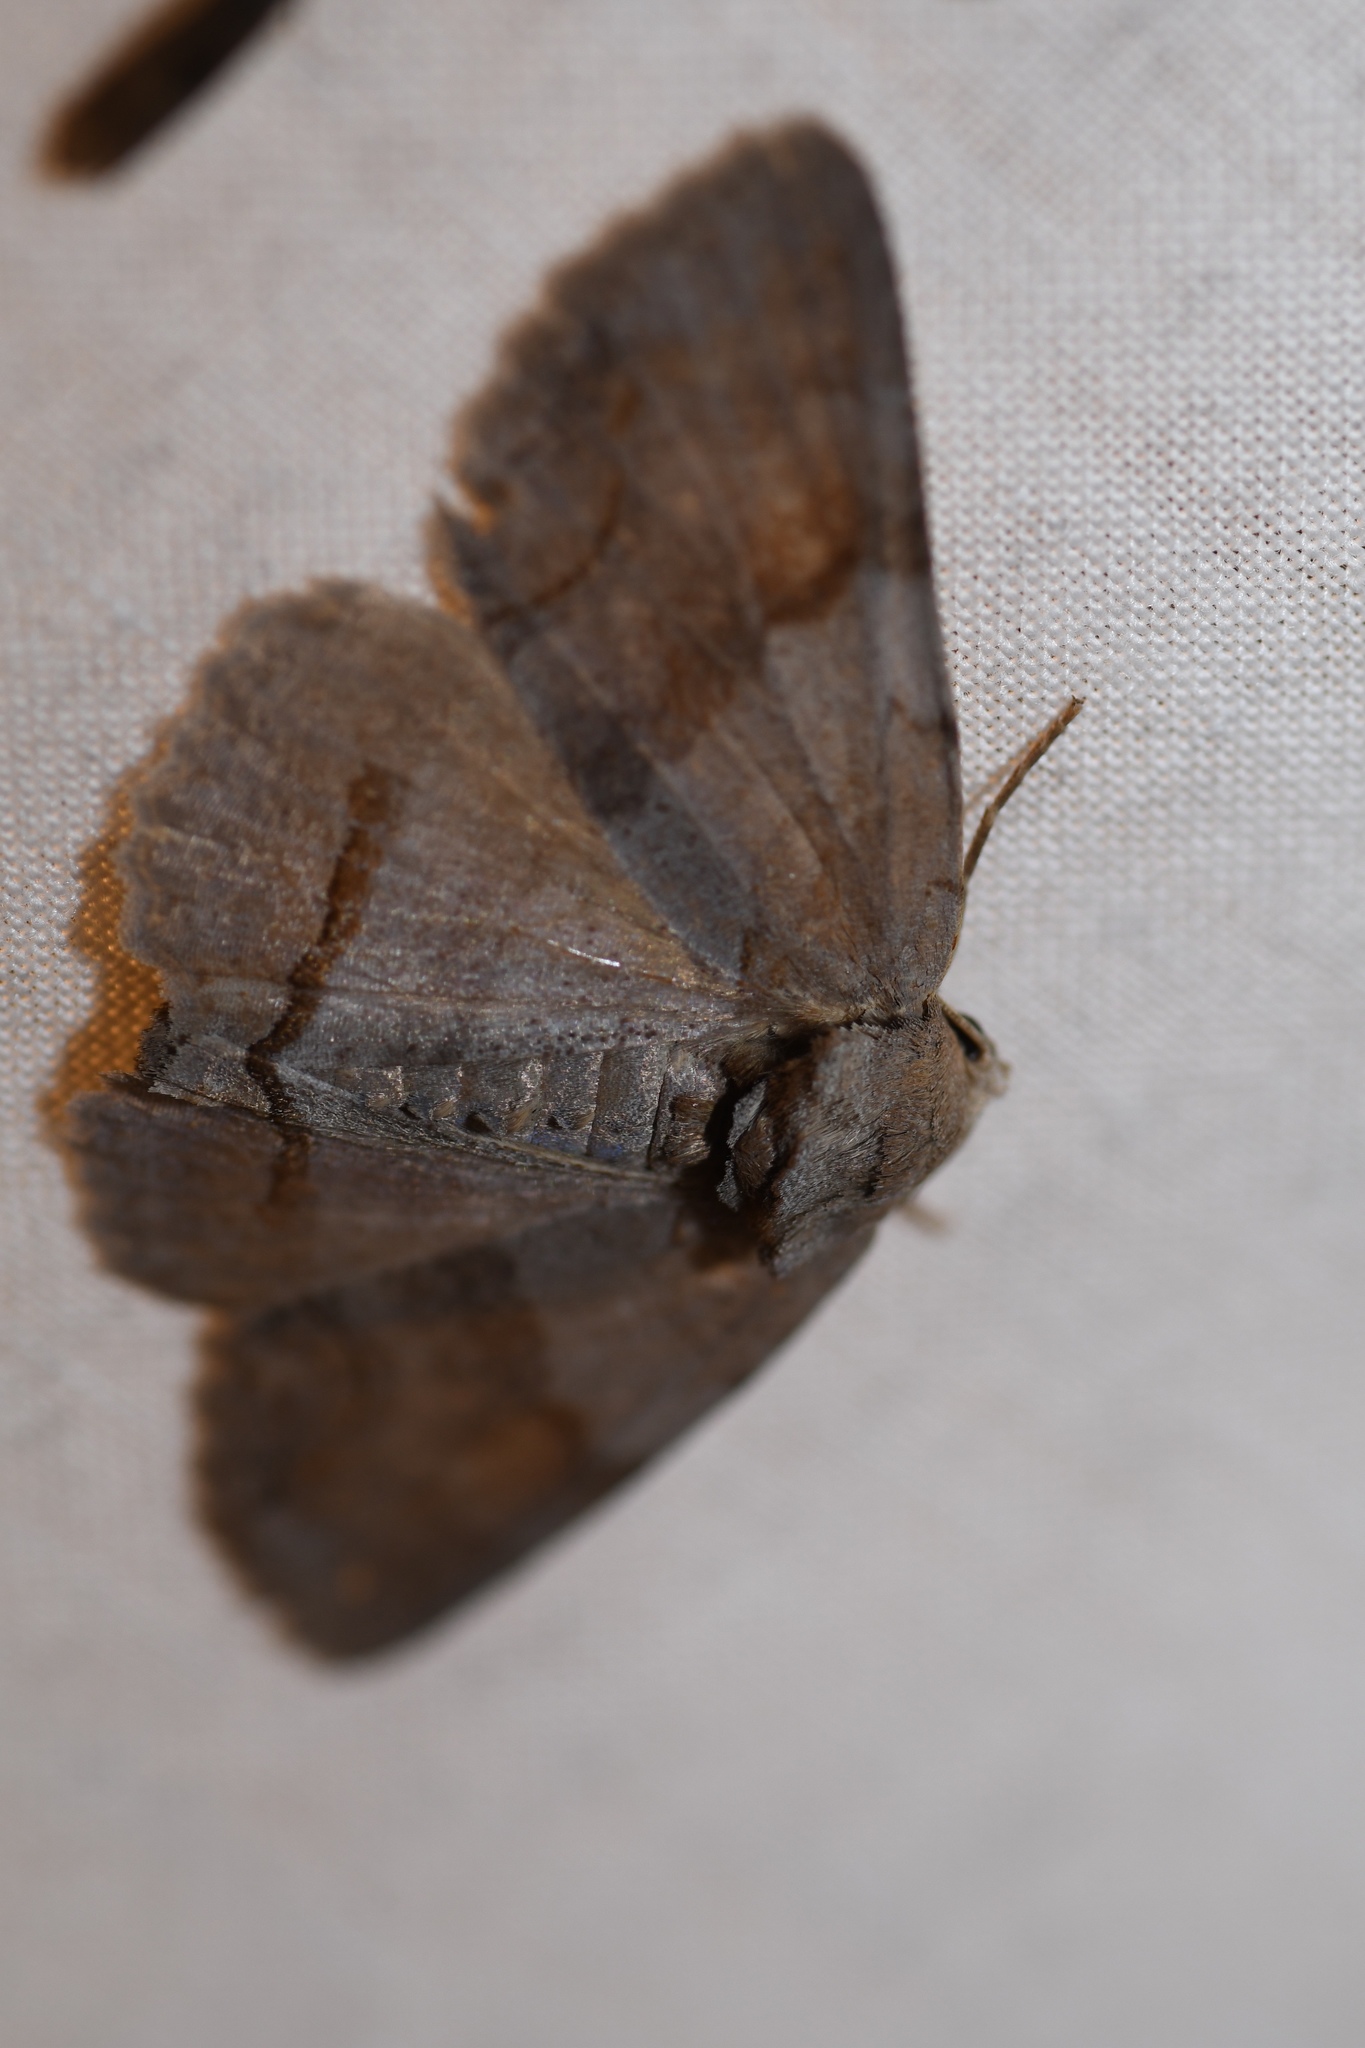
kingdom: Animalia
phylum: Arthropoda
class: Insecta
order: Lepidoptera
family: Erebidae
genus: Zale
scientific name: Zale obliqua
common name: Oblique zale moth
